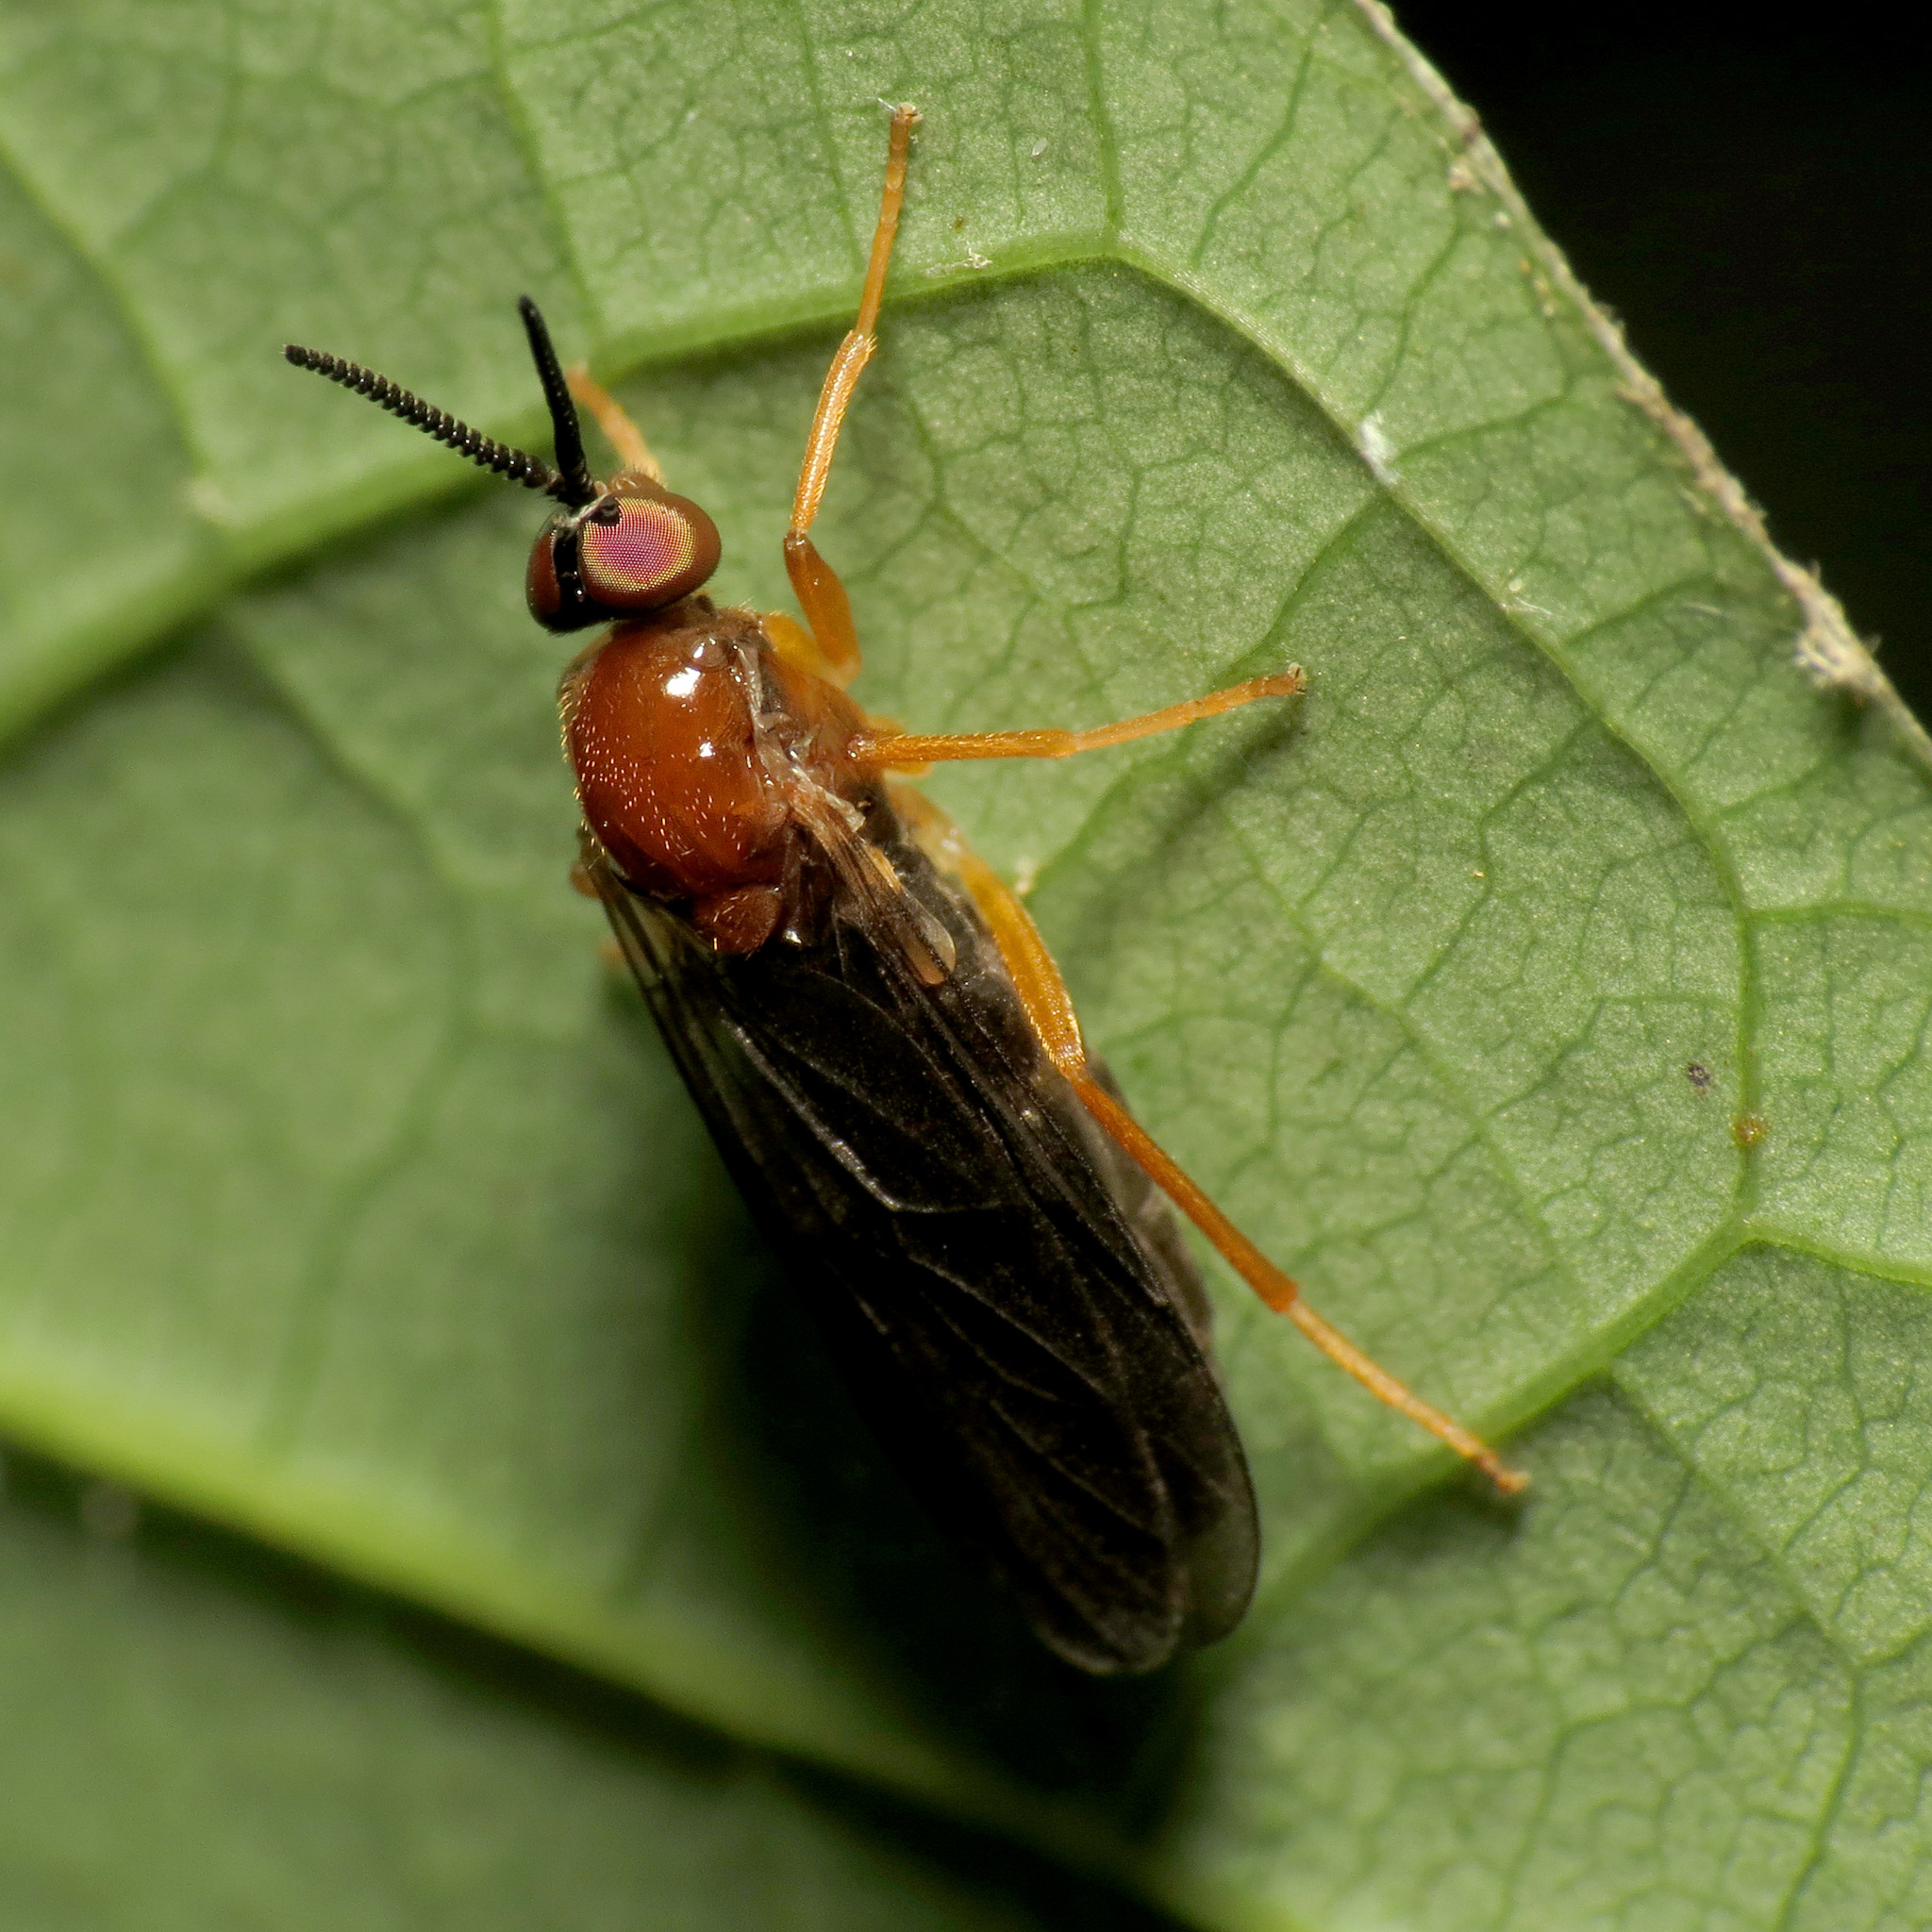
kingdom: Animalia
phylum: Arthropoda
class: Insecta
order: Diptera
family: Xylophagidae
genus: Rachicerus
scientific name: Rachicerus fulvicollis
